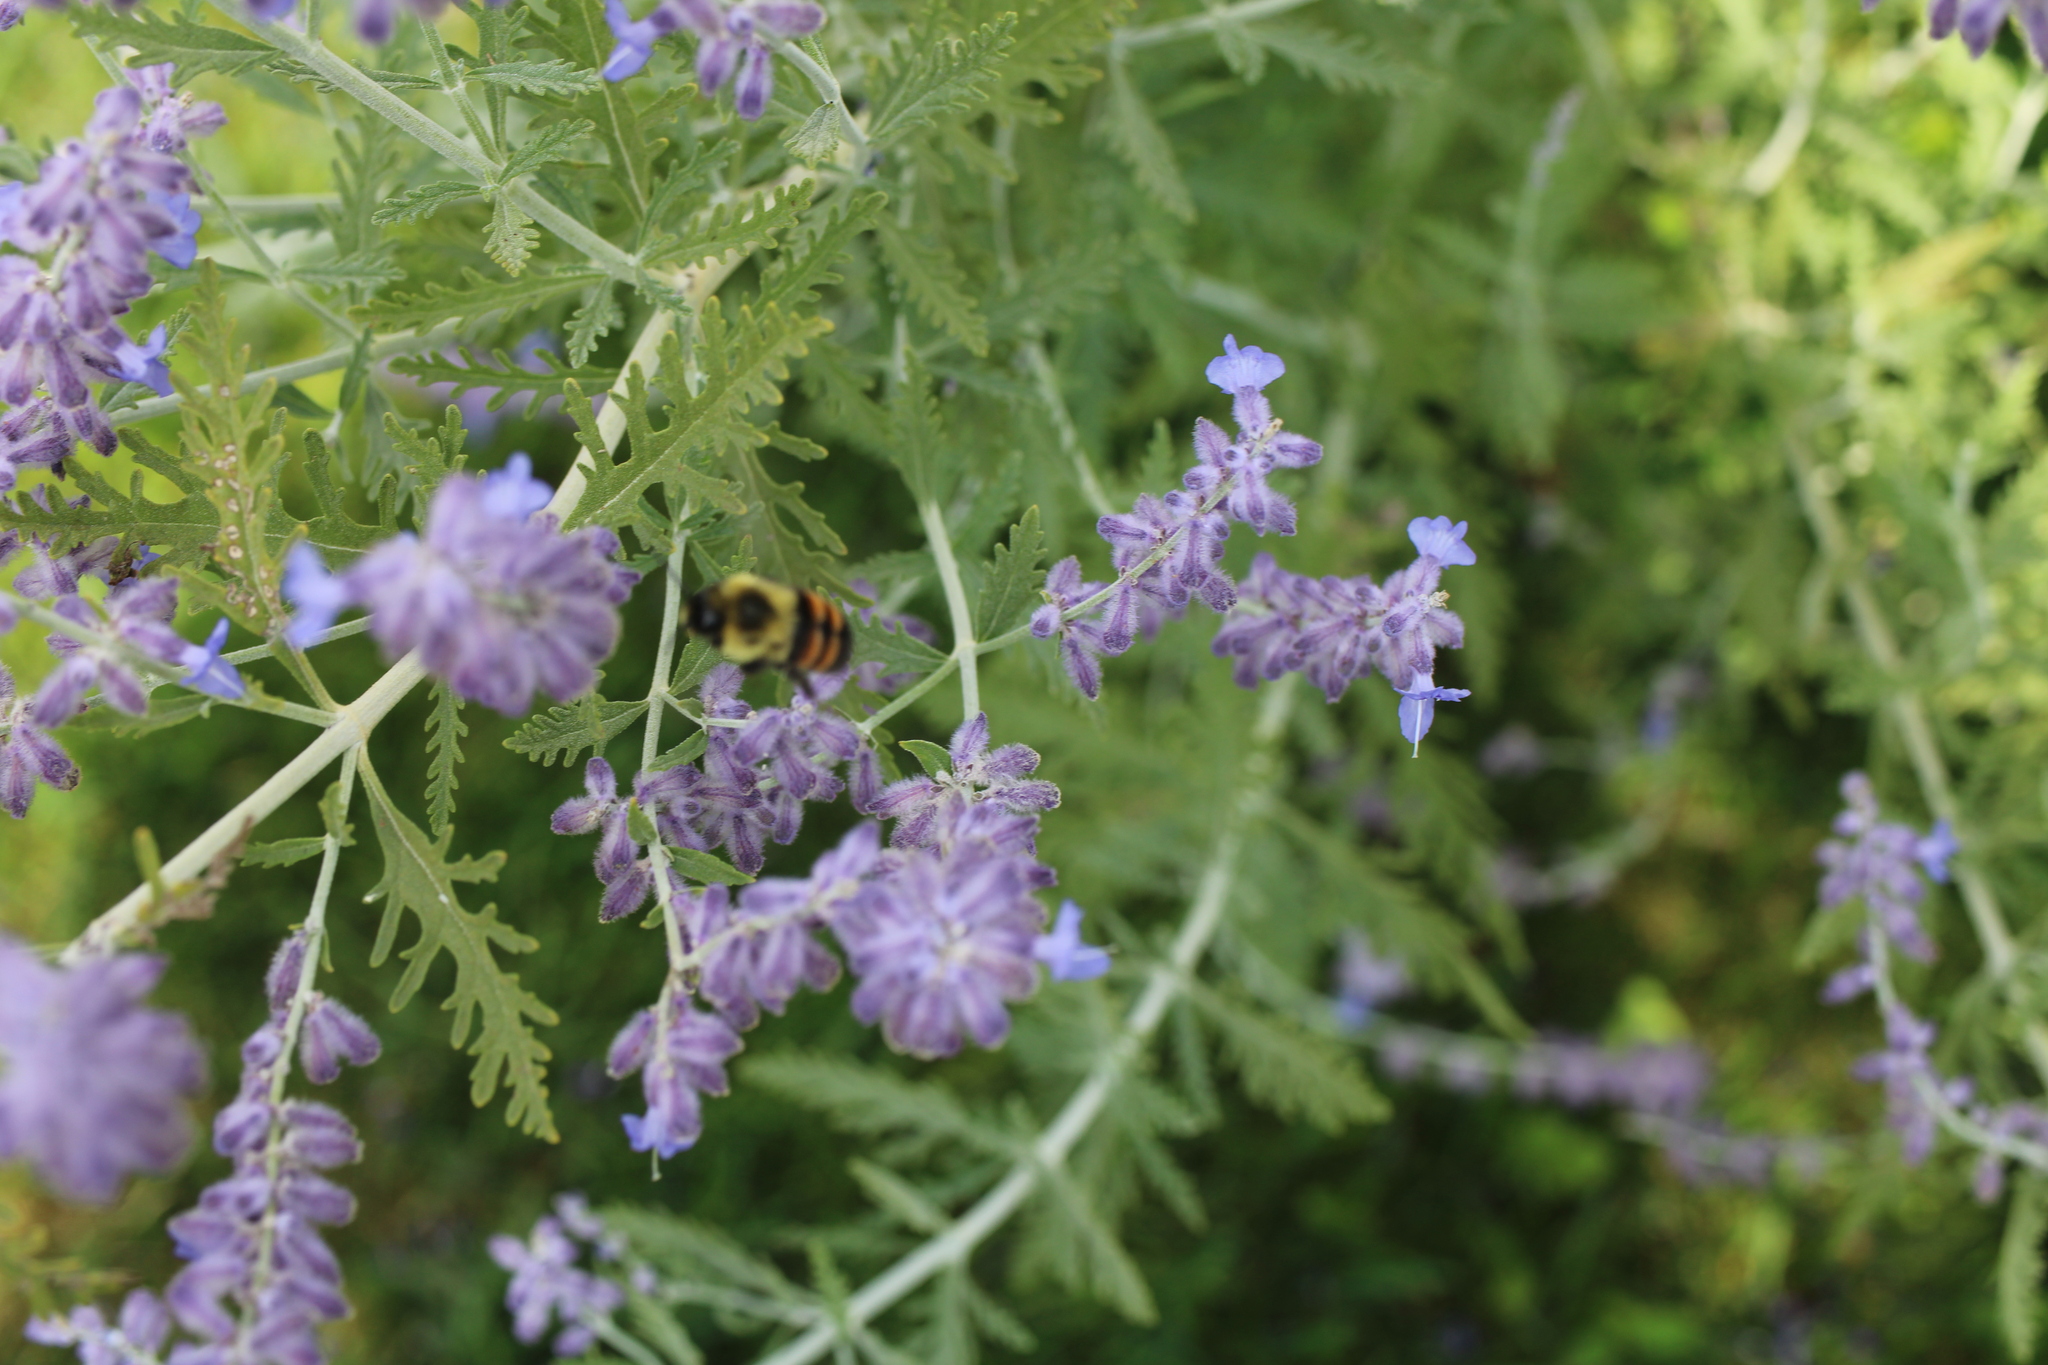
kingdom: Animalia
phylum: Arthropoda
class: Insecta
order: Hymenoptera
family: Apidae
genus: Bombus
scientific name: Bombus impatiens
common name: Common eastern bumble bee
